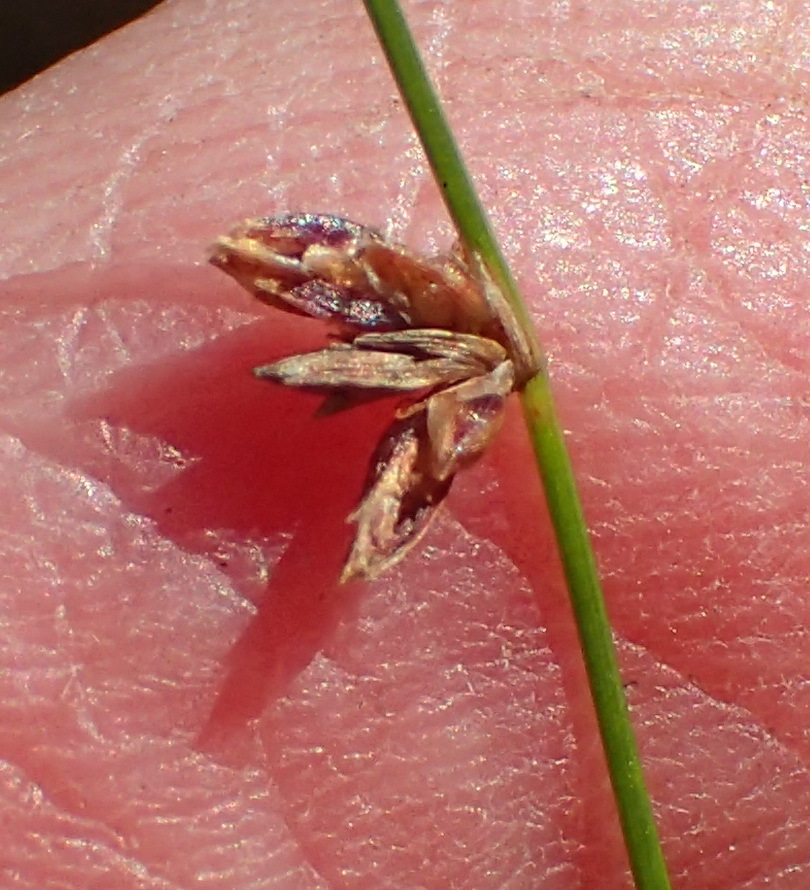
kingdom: Plantae
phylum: Tracheophyta
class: Liliopsida
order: Poales
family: Cyperaceae
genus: Ficinia
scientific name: Ficinia acuminata
